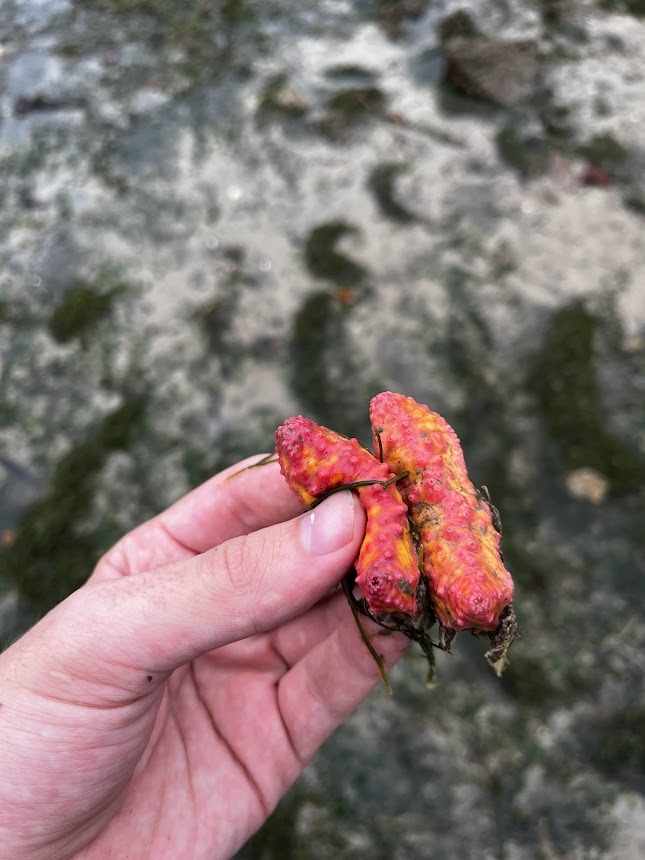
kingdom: Animalia
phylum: Echinodermata
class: Holothuroidea
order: Dendrochirotida
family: Cucumariidae
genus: Cercodemas
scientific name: Cercodemas anceps
